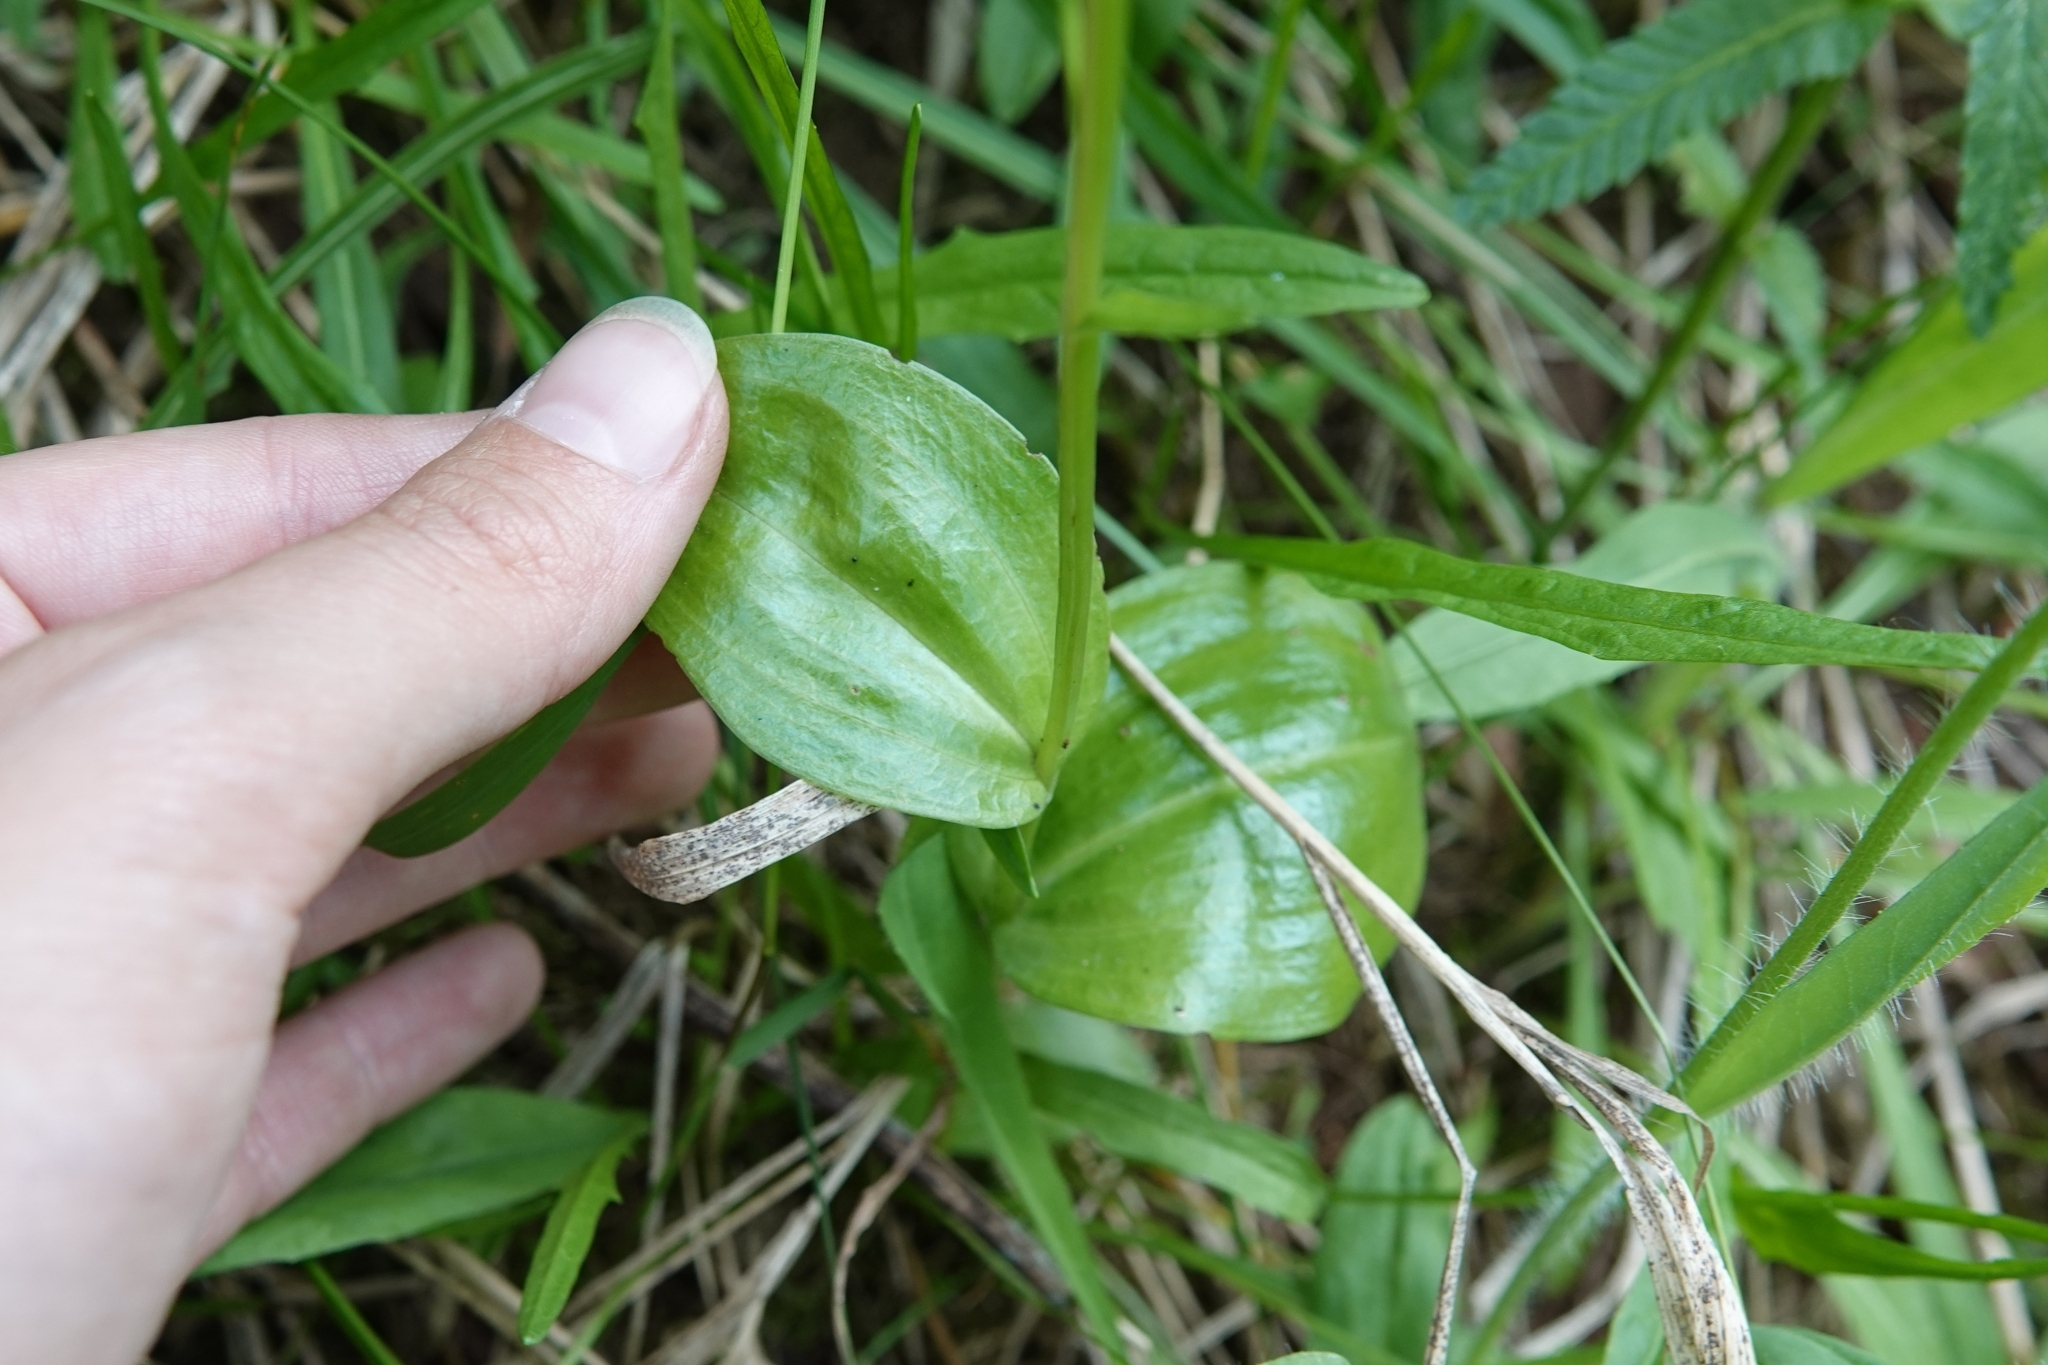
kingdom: Plantae
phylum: Tracheophyta
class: Liliopsida
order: Asparagales
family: Orchidaceae
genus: Platanthera
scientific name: Platanthera chorisiana
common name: Chamisso's orchid
